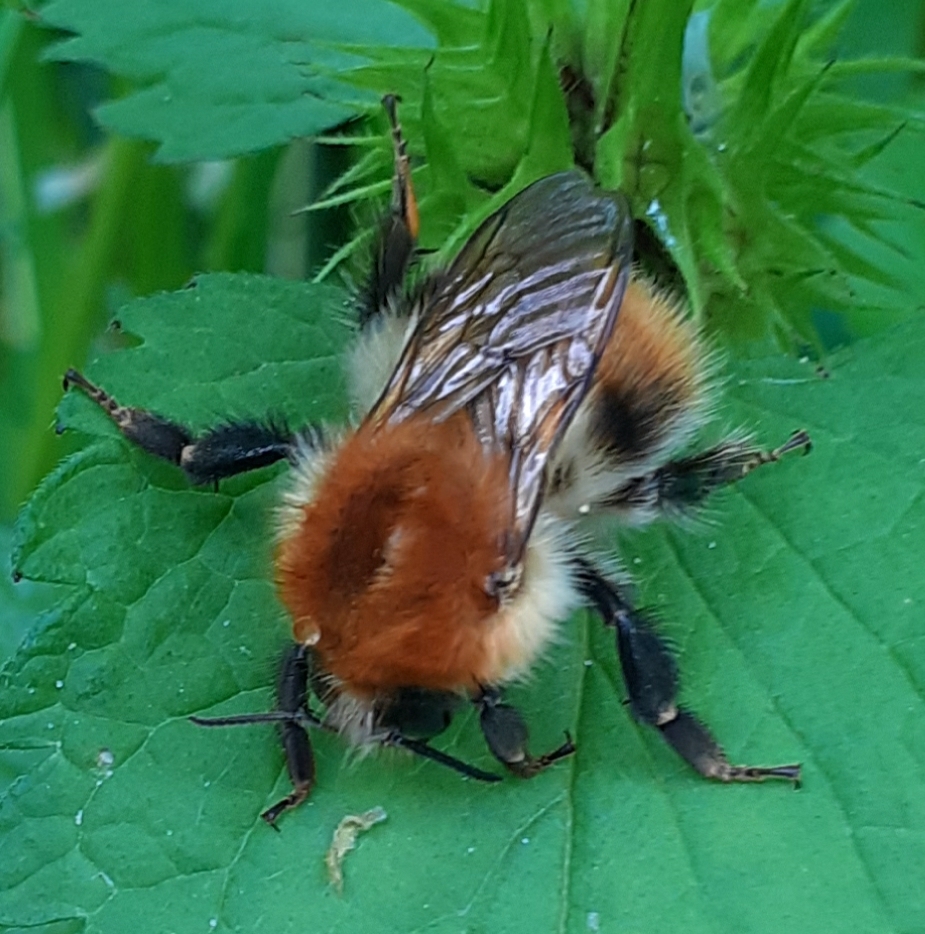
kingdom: Animalia
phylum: Arthropoda
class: Insecta
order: Hymenoptera
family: Apidae
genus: Bombus
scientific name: Bombus pascuorum
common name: Common carder bee
